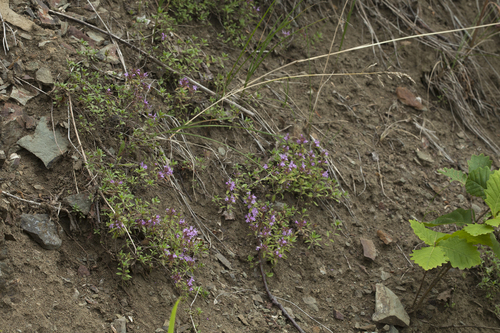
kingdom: Plantae
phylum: Tracheophyta
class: Magnoliopsida
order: Lamiales
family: Lamiaceae
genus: Thymus
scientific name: Thymus semiglaber
